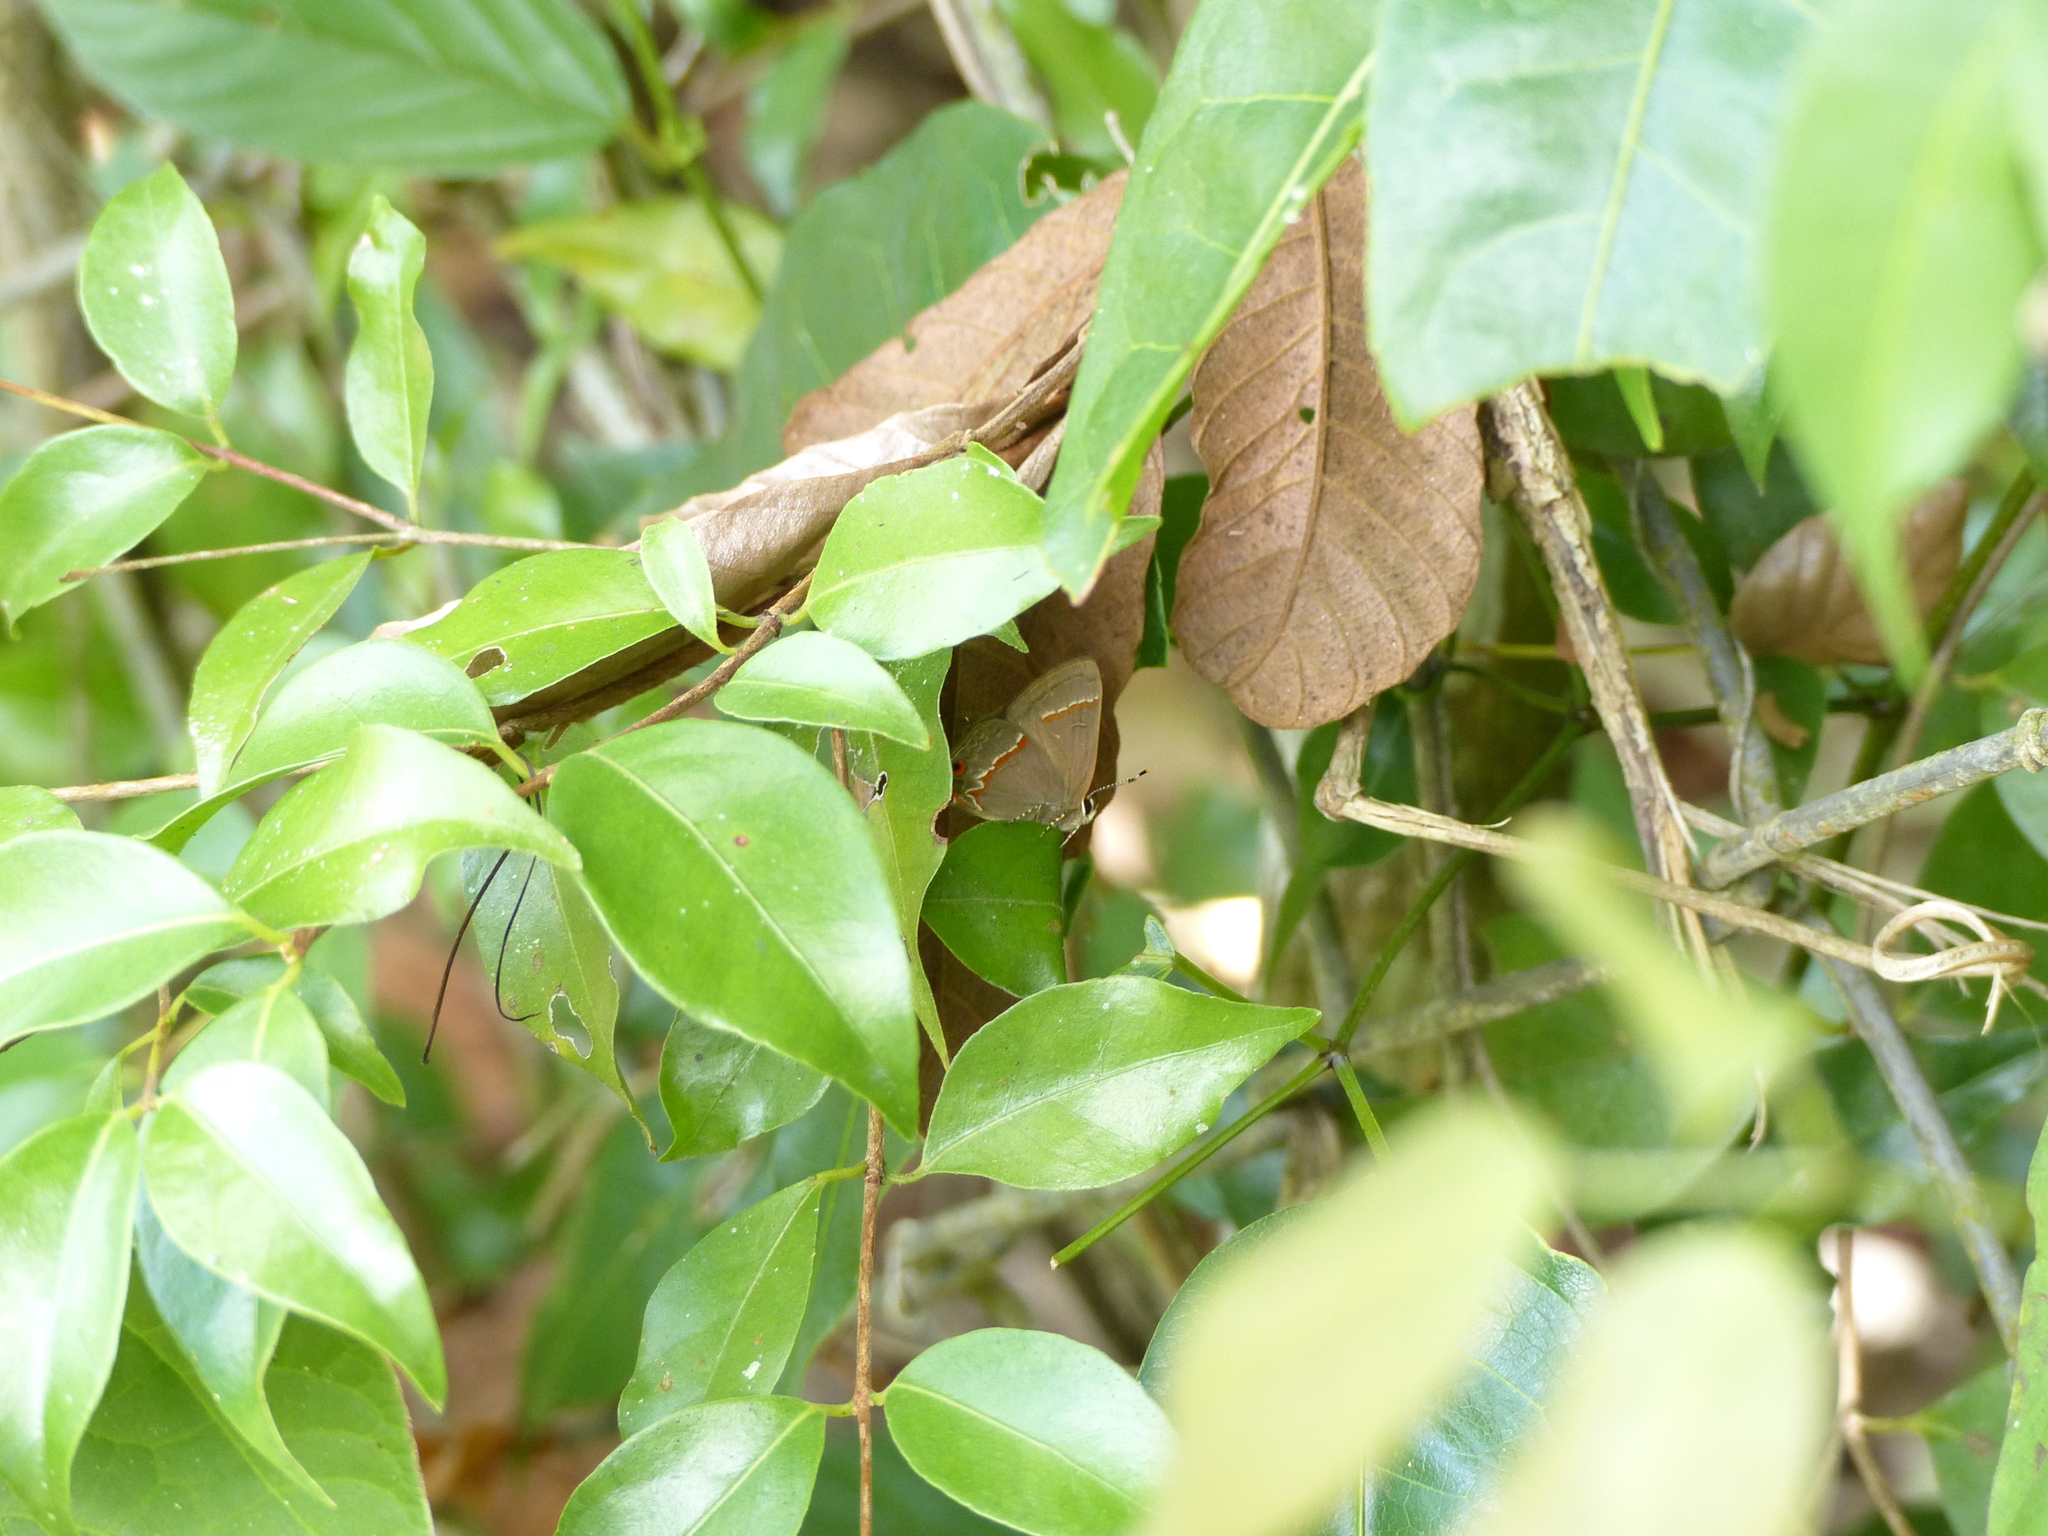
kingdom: Animalia
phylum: Arthropoda
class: Insecta
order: Lepidoptera
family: Lycaenidae
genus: Electrostrymon
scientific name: Electrostrymon endymion
